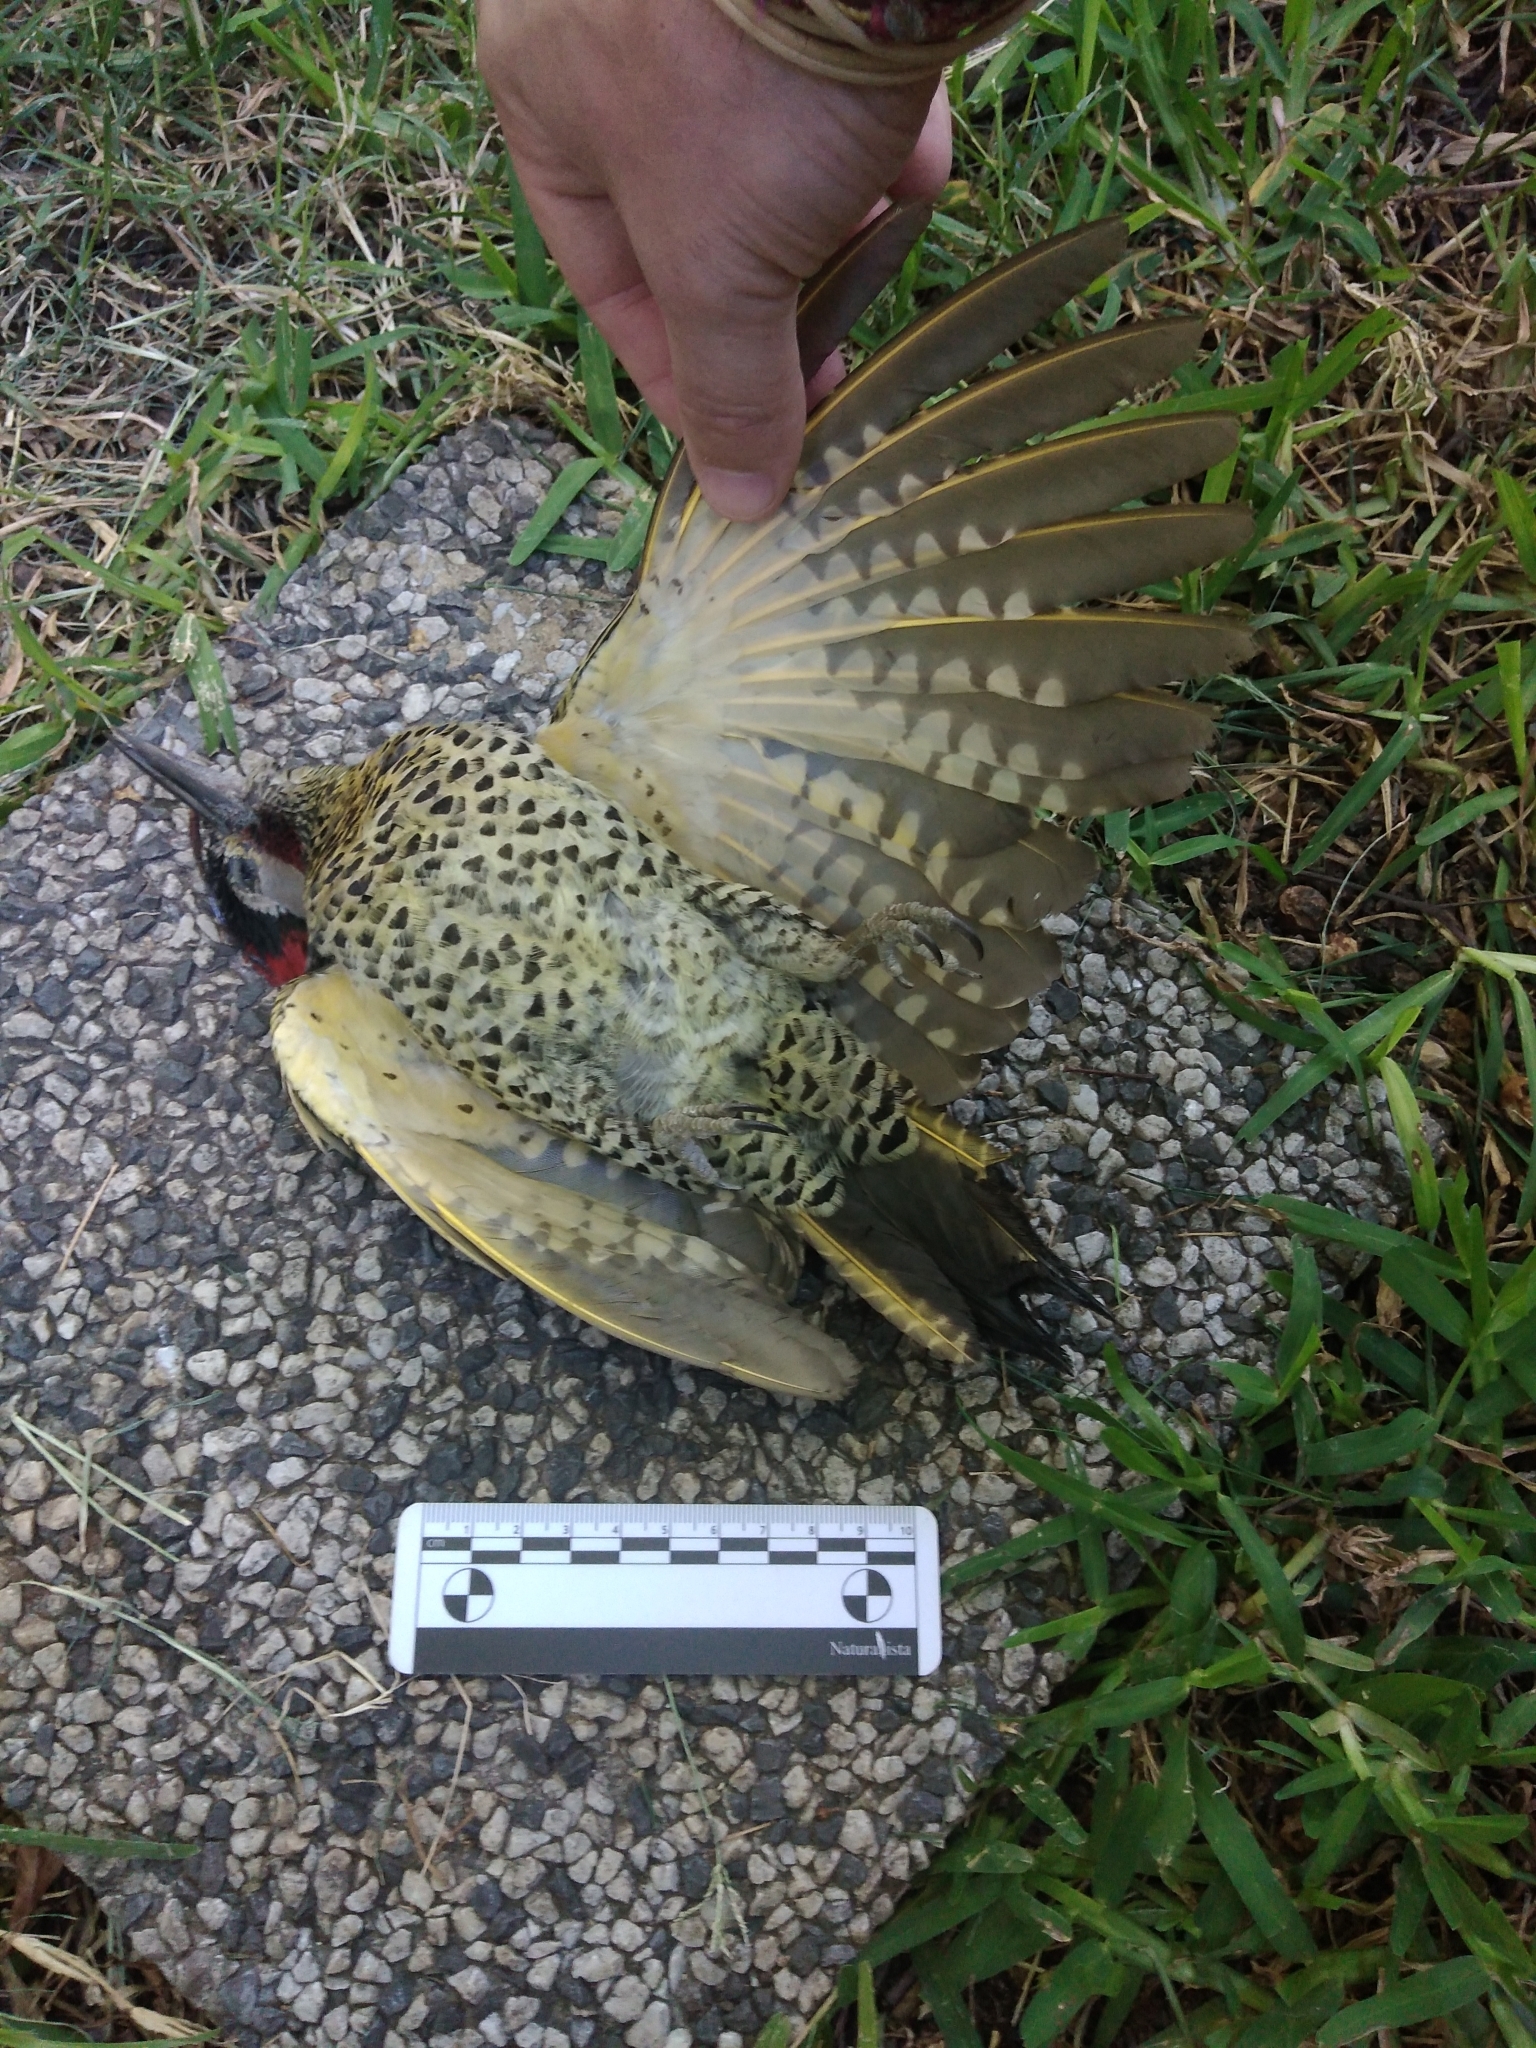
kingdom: Animalia
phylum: Chordata
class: Aves
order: Piciformes
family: Picidae
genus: Colaptes
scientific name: Colaptes melanochloros
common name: Green-barred woodpecker
